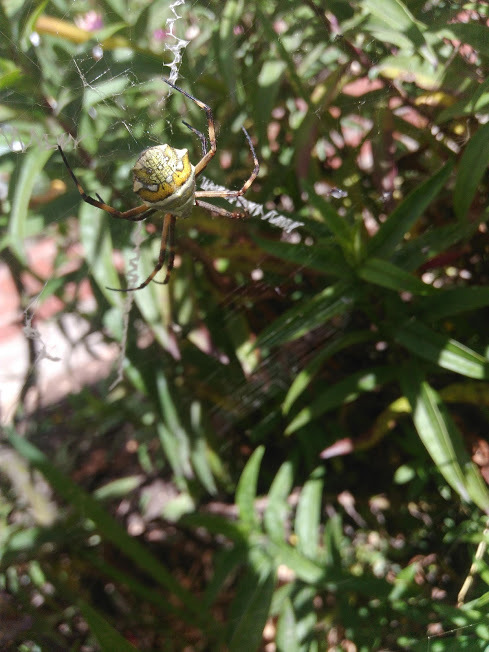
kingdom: Animalia
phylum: Arthropoda
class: Arachnida
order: Araneae
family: Araneidae
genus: Argiope
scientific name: Argiope argentata
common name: Orb weavers
